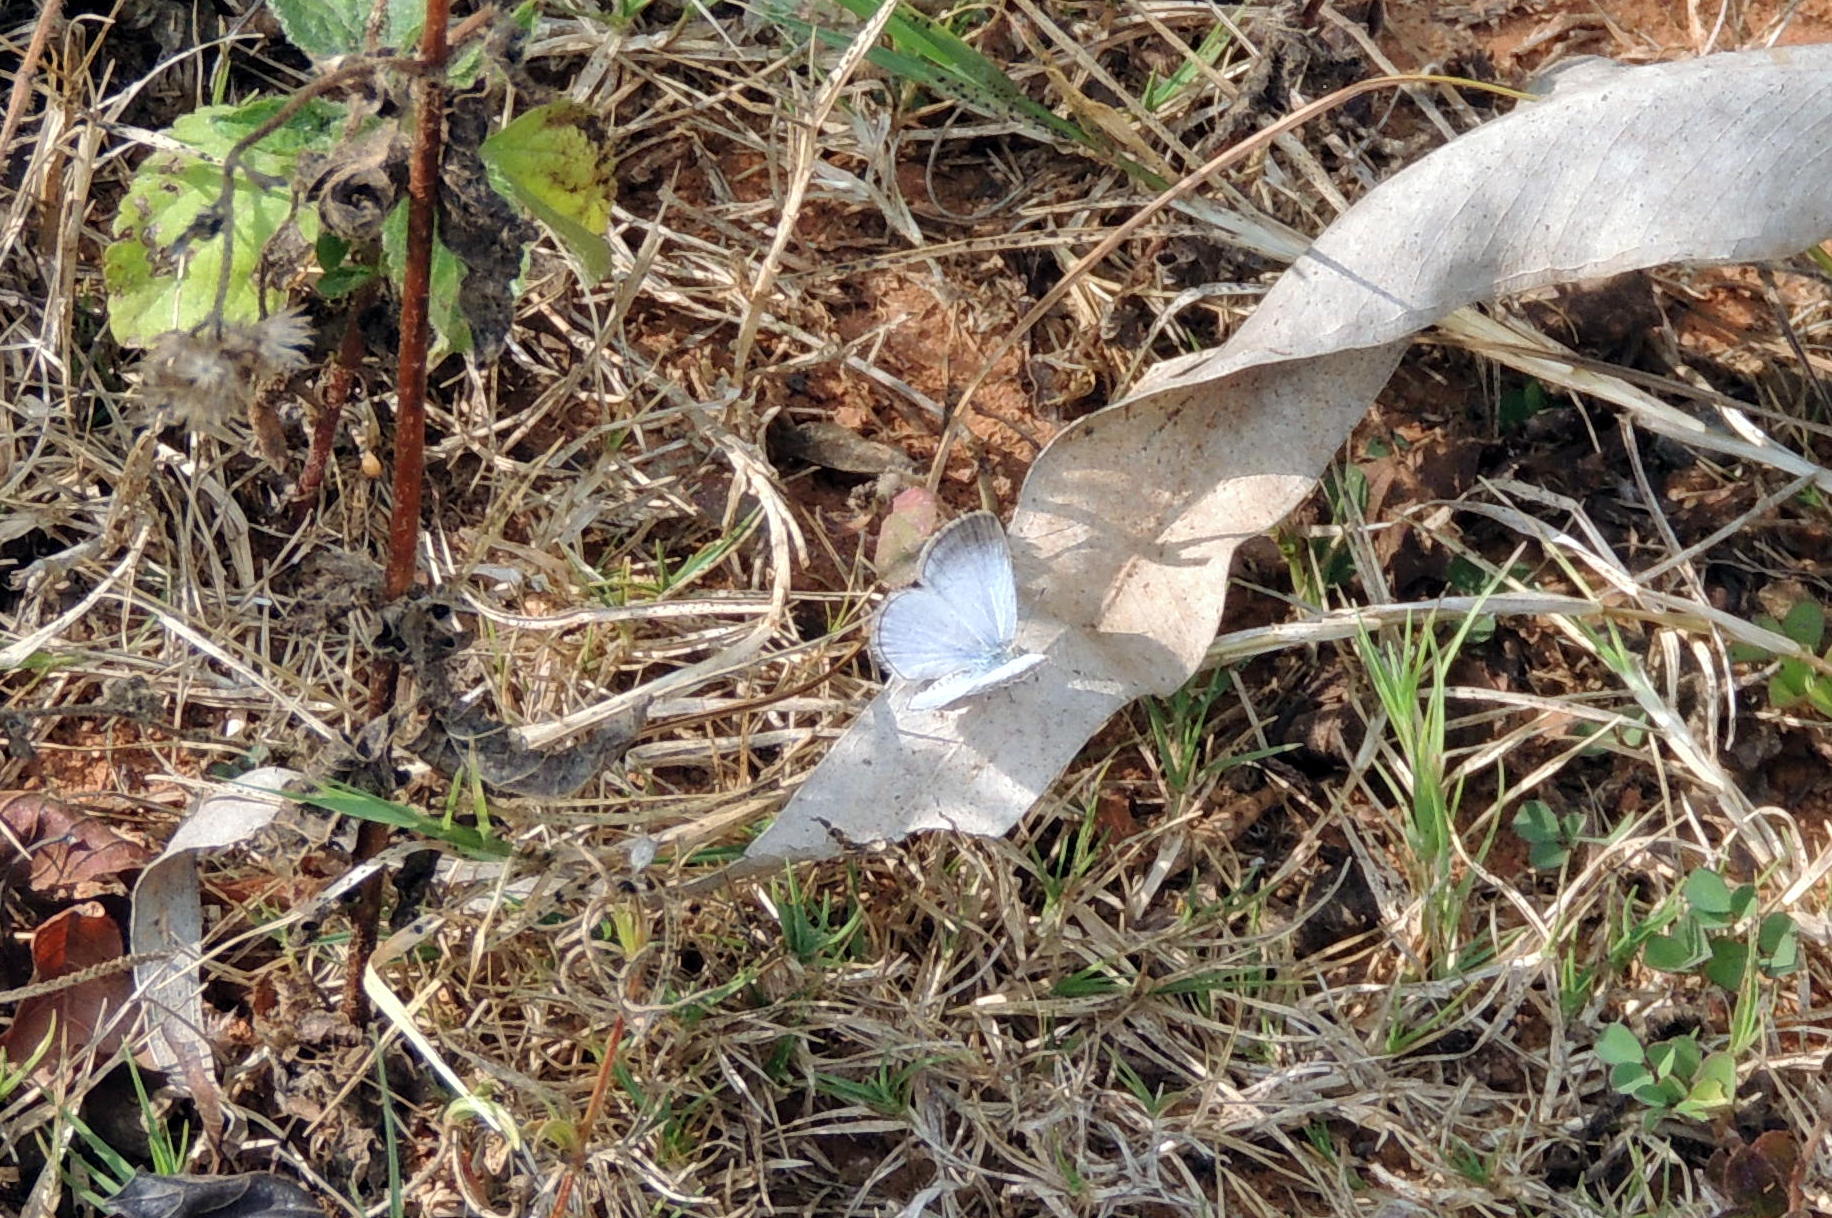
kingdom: Animalia
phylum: Arthropoda
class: Insecta
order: Lepidoptera
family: Lycaenidae
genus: Pseudozizeeria
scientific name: Pseudozizeeria maha
